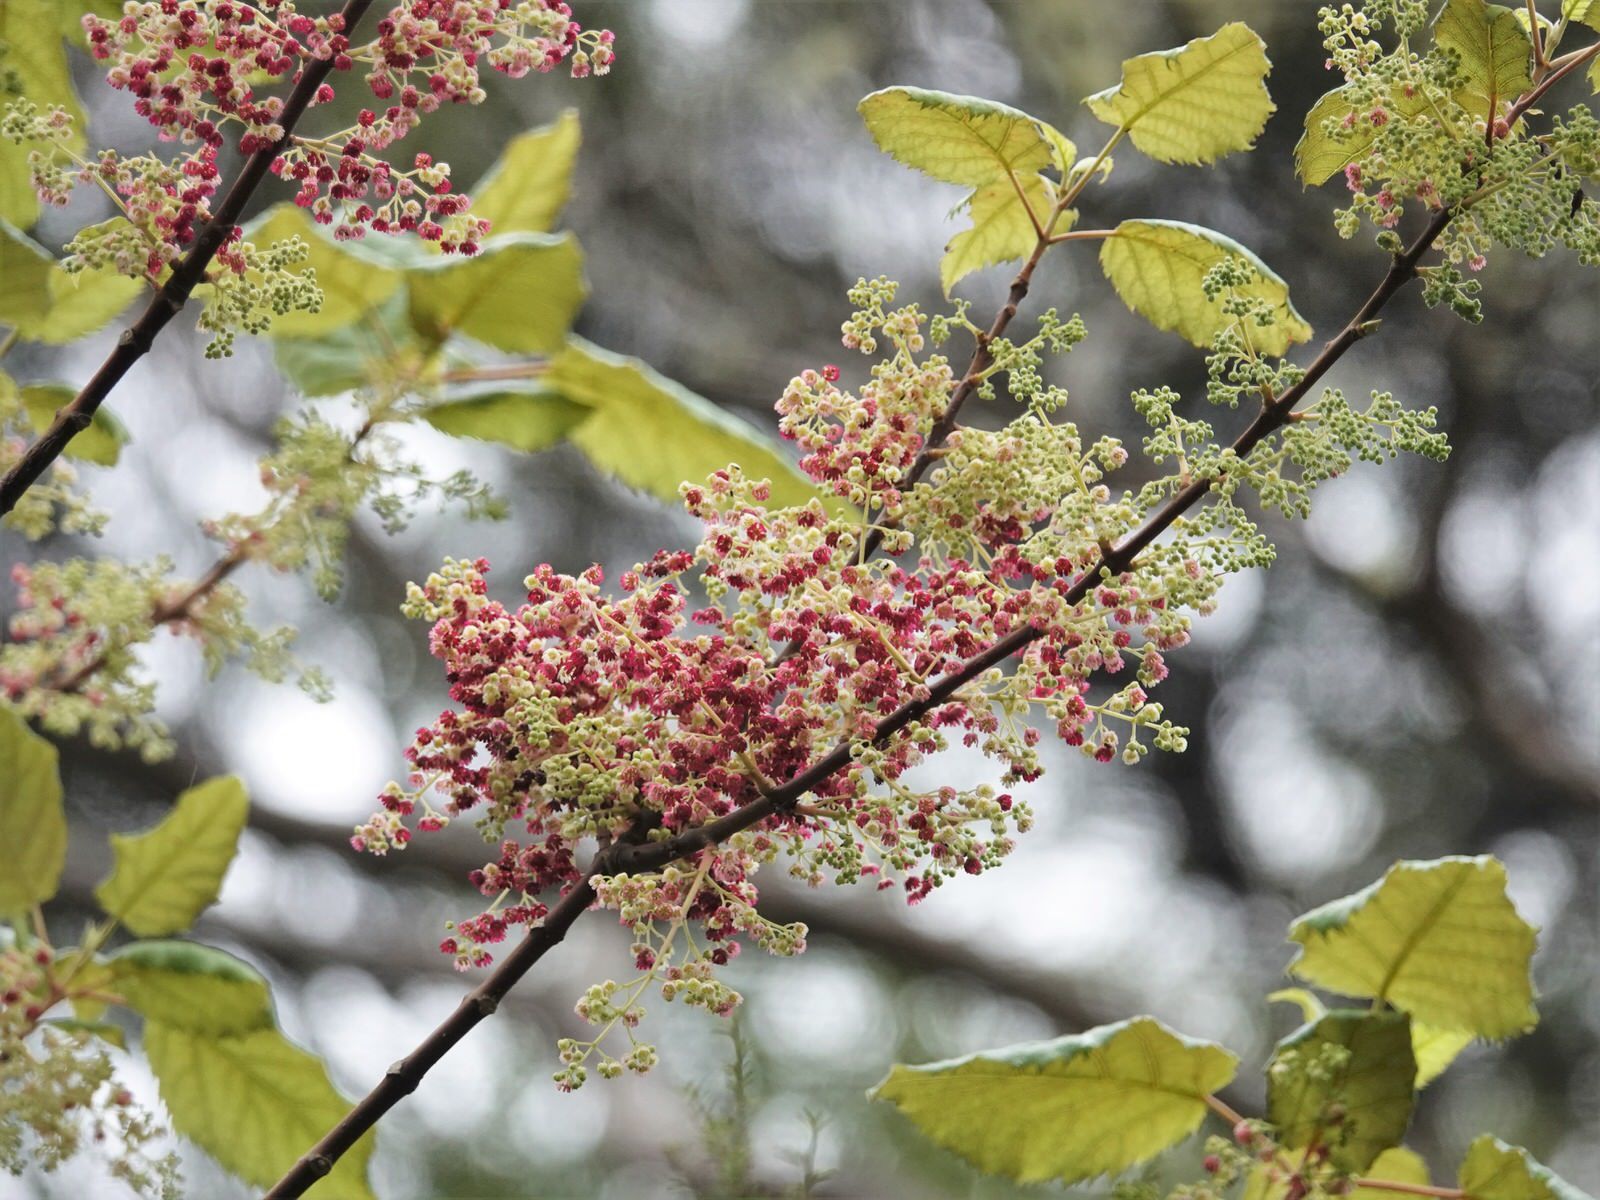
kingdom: Plantae
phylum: Tracheophyta
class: Magnoliopsida
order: Oxalidales
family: Elaeocarpaceae
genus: Aristotelia
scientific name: Aristotelia serrata
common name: New zealand wineberry
